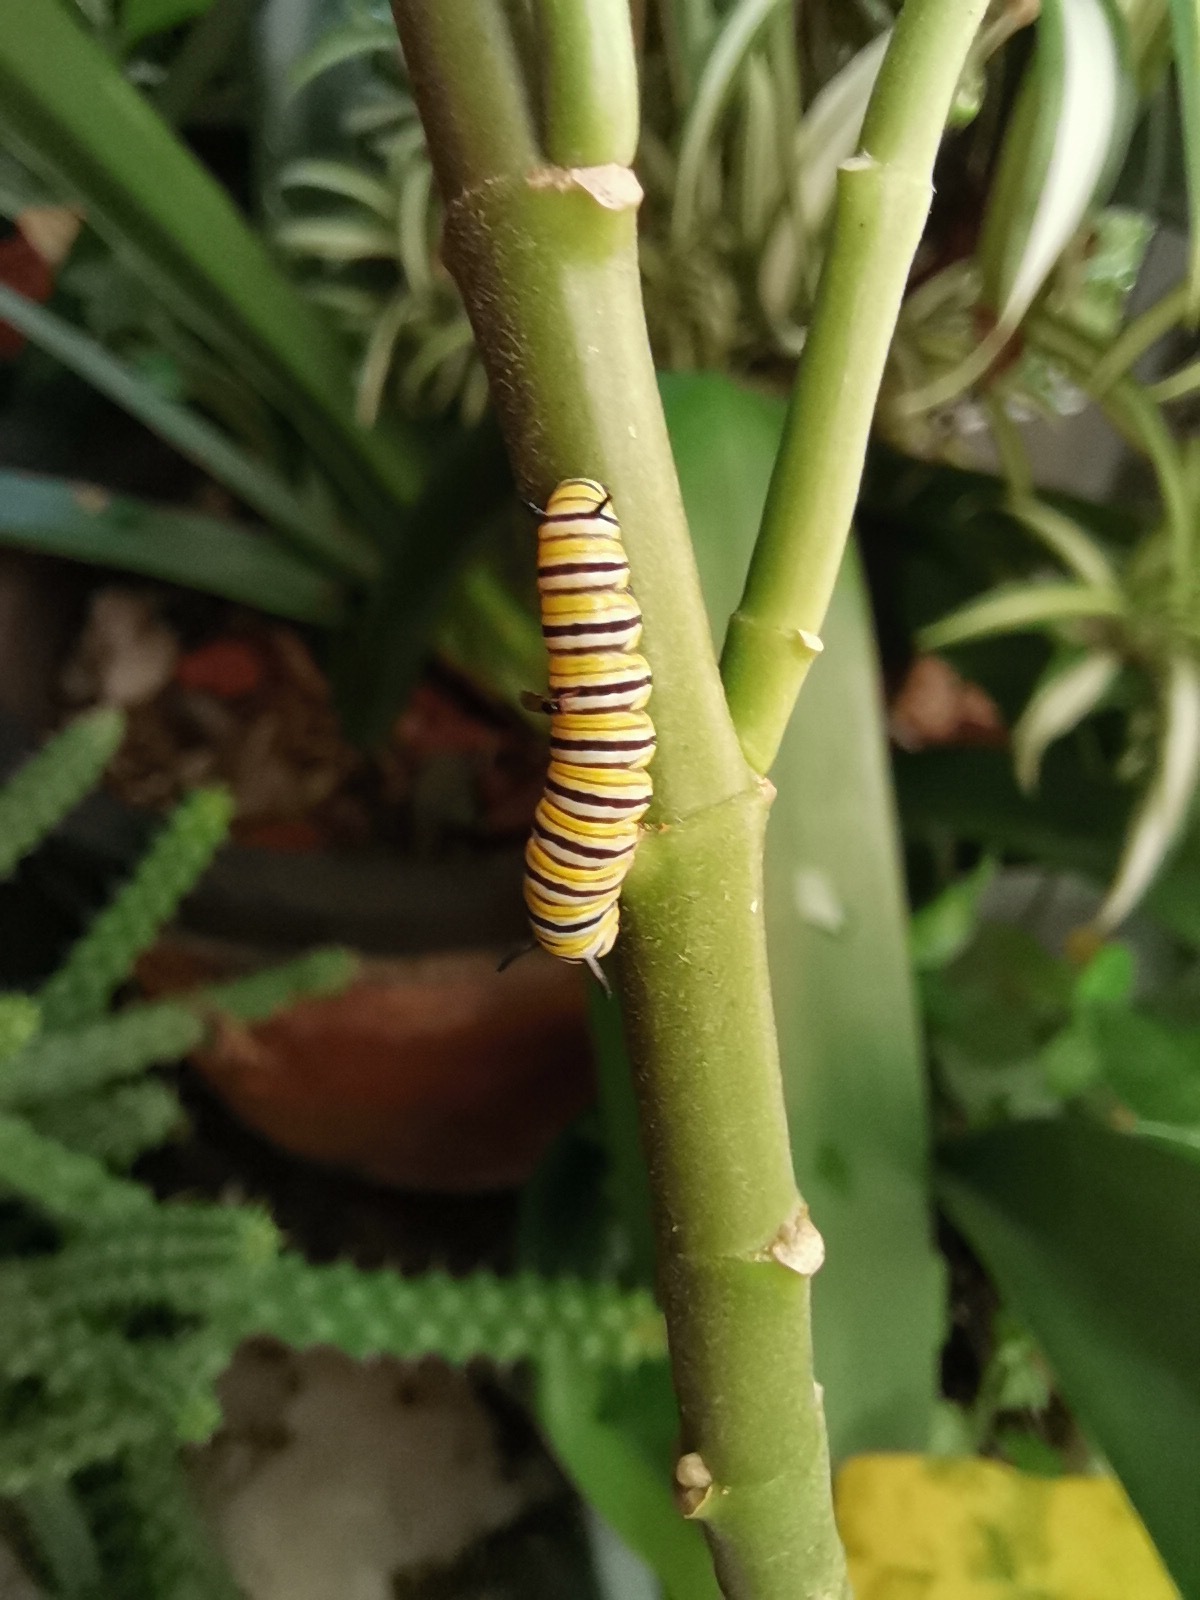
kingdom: Animalia
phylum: Arthropoda
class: Insecta
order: Lepidoptera
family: Nymphalidae
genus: Danaus
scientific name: Danaus plexippus
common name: Monarch
